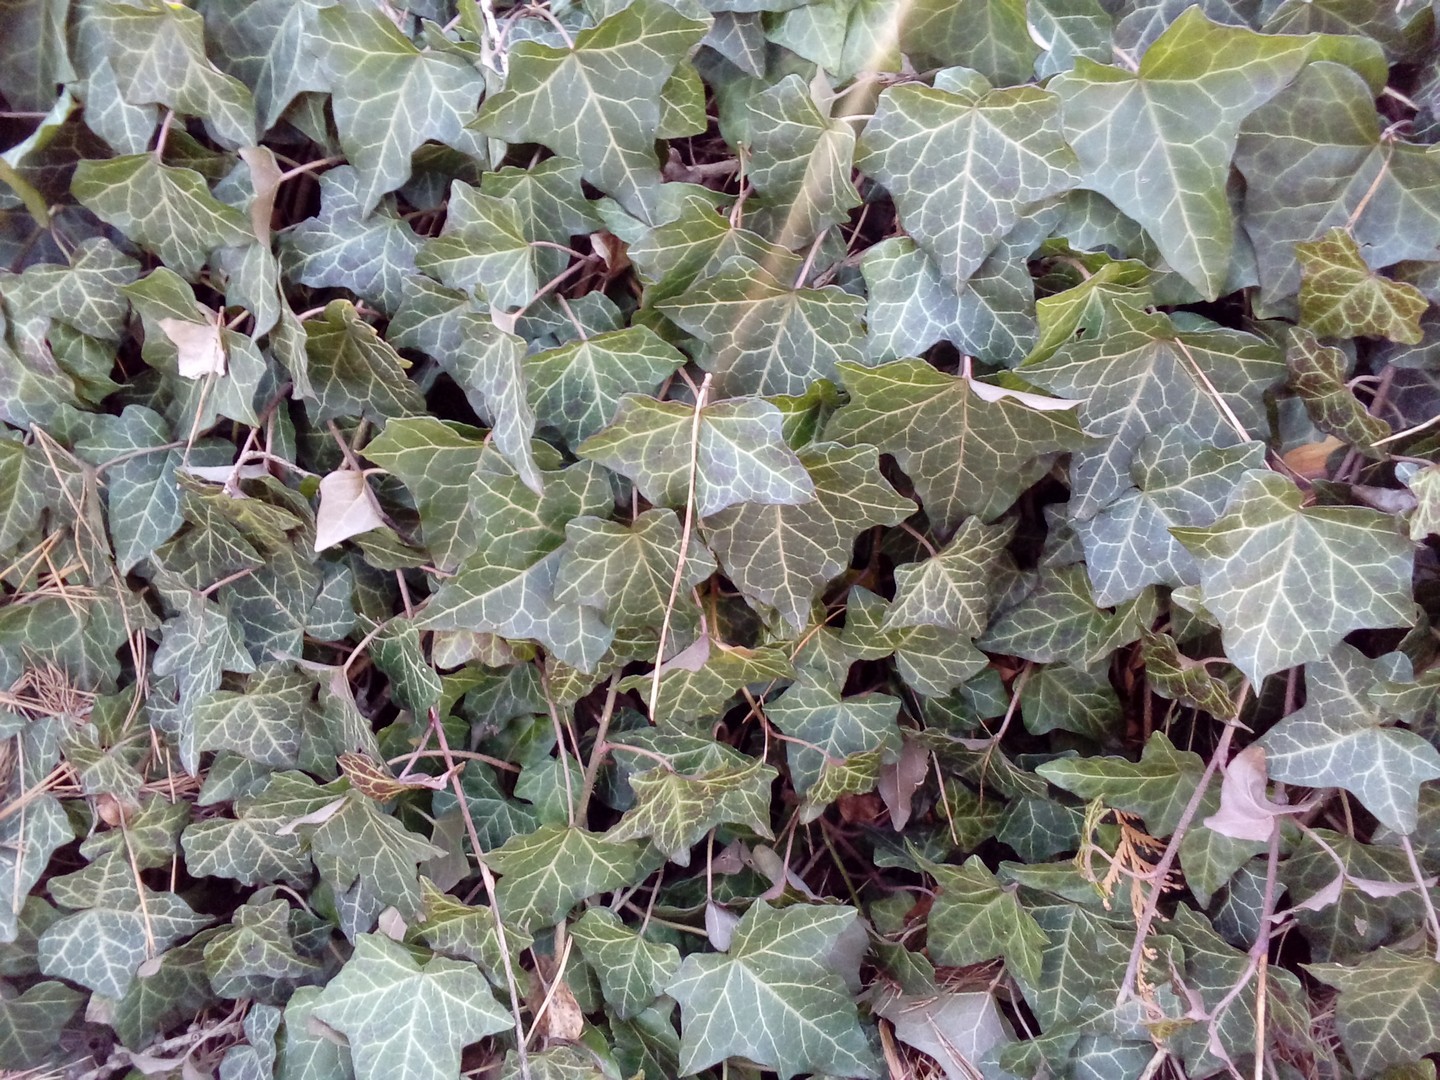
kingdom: Plantae
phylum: Tracheophyta
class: Magnoliopsida
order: Apiales
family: Araliaceae
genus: Hedera
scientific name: Hedera helix
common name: Ivy
